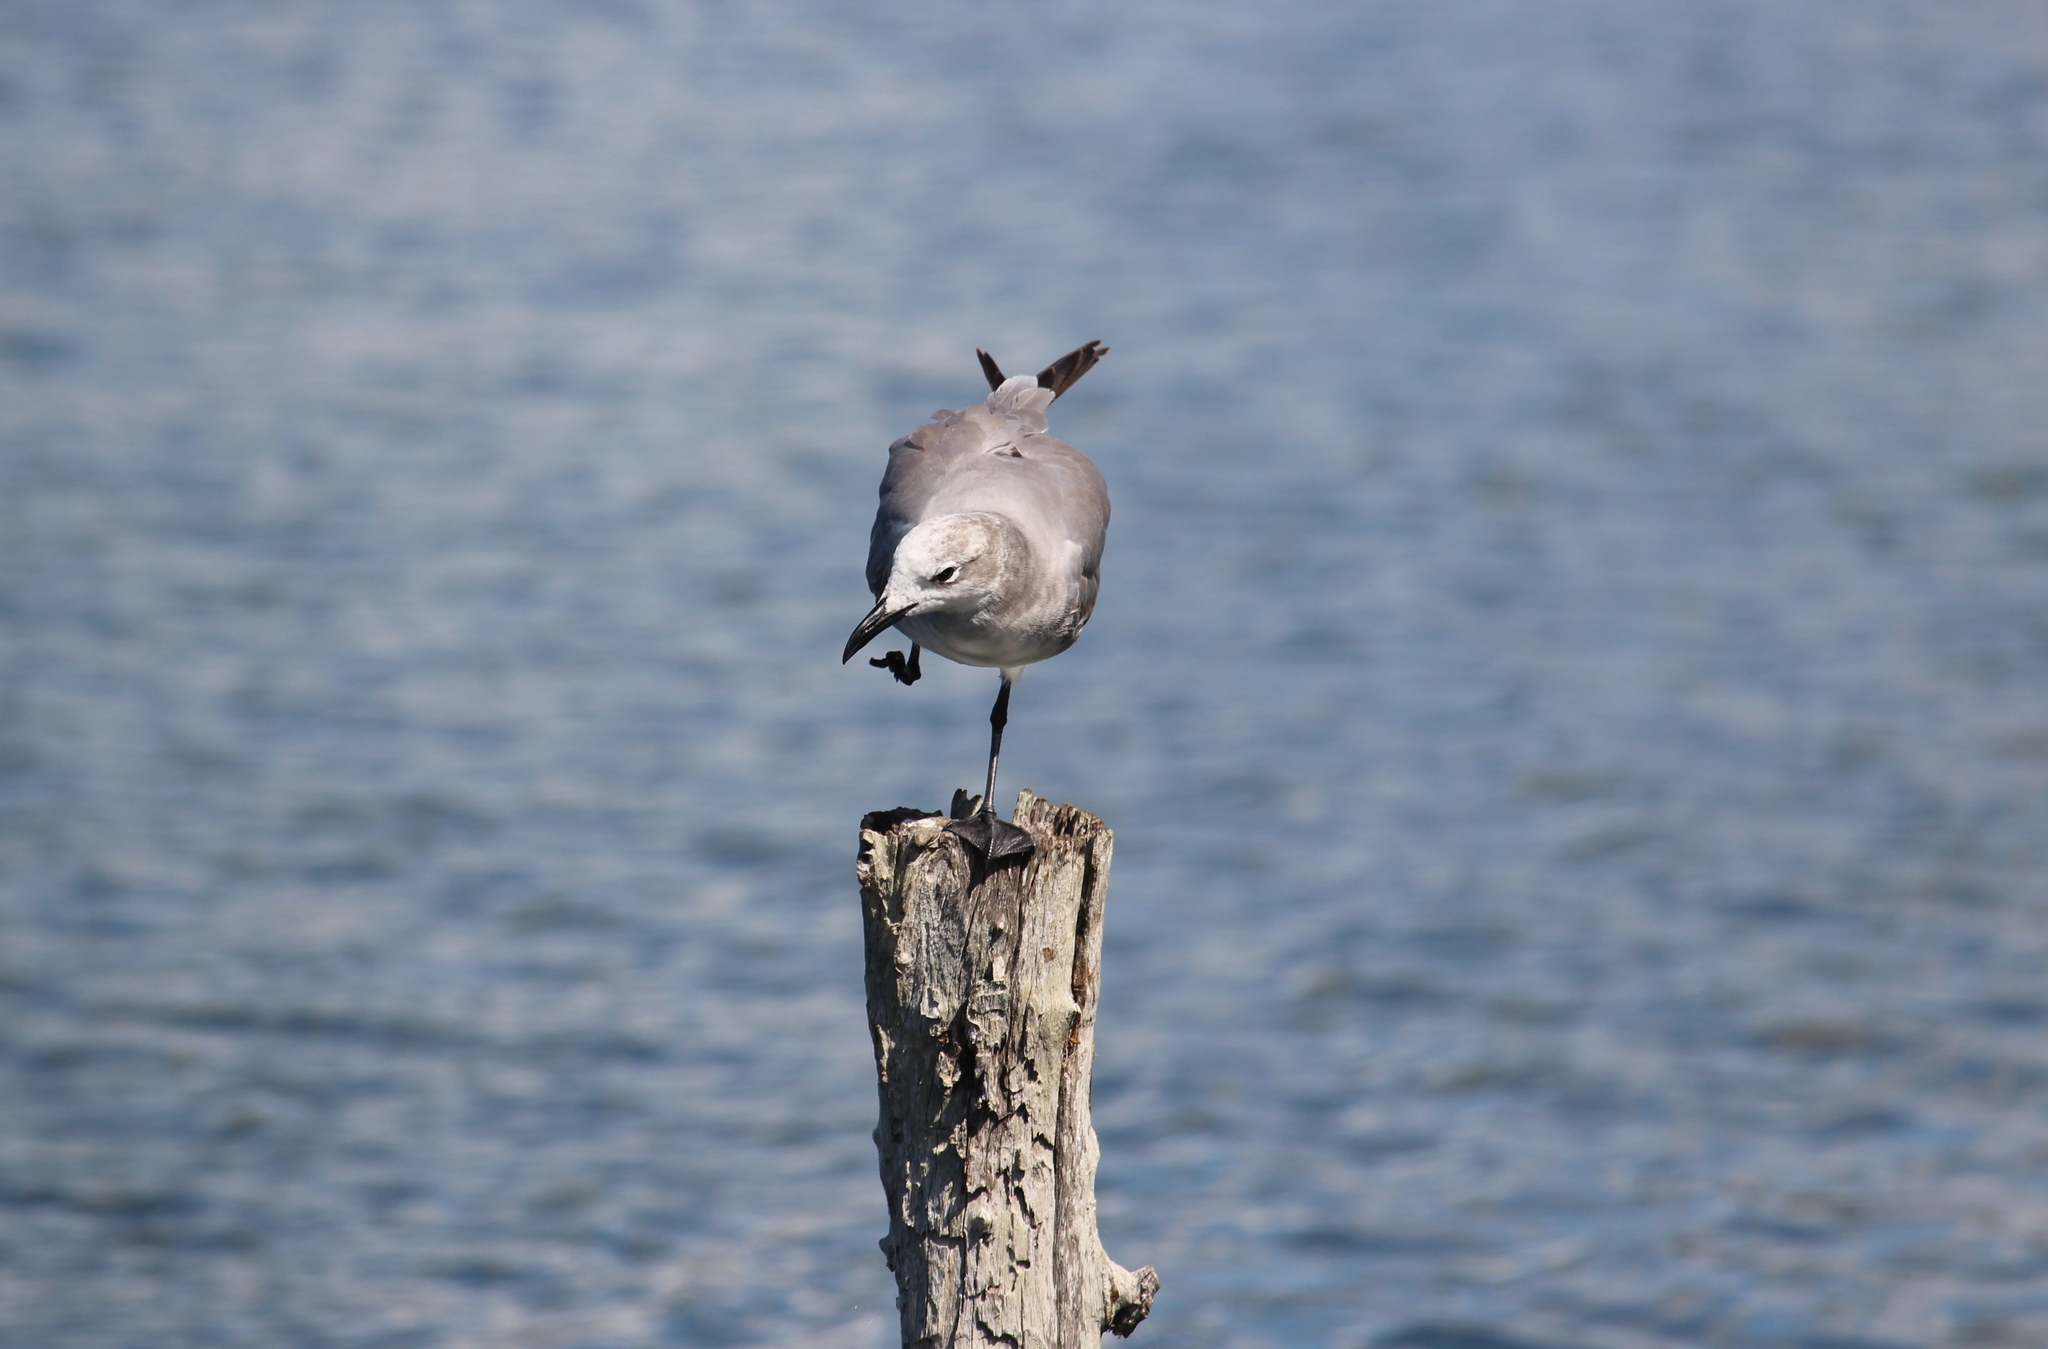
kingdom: Animalia
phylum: Chordata
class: Aves
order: Charadriiformes
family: Laridae
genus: Leucophaeus
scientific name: Leucophaeus atricilla
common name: Laughing gull
